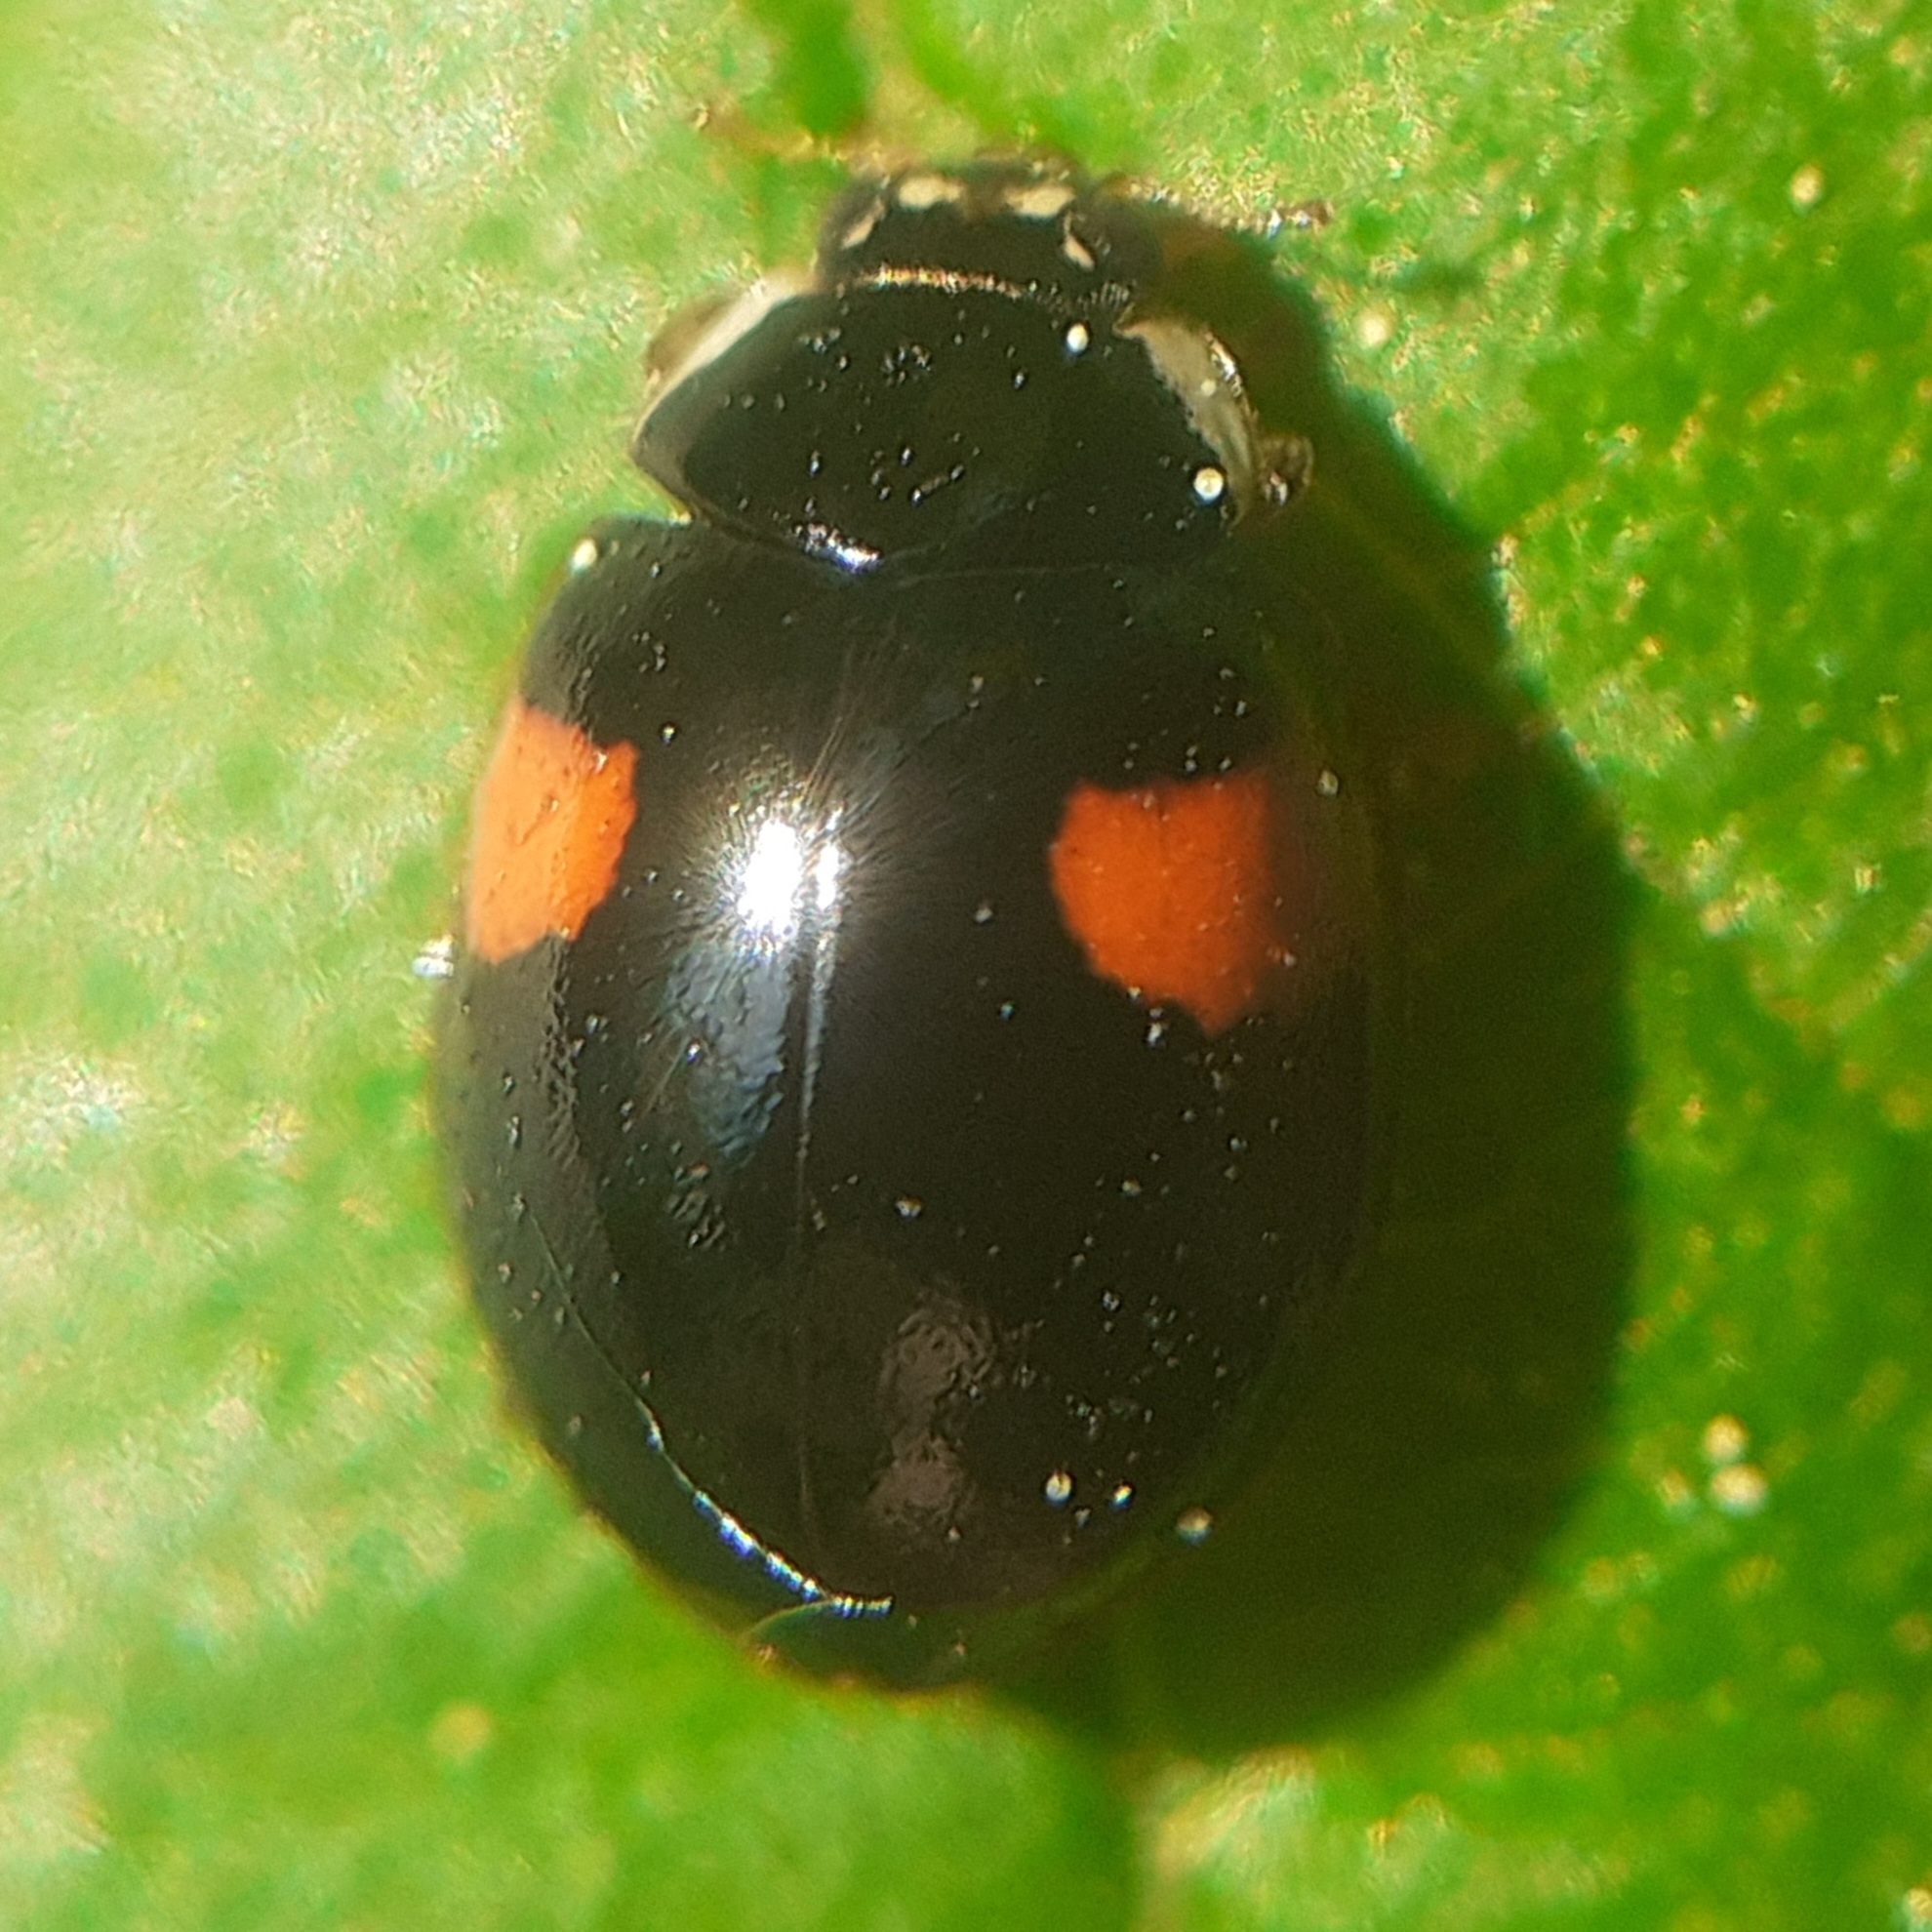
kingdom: Animalia
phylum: Arthropoda
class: Insecta
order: Coleoptera
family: Coccinellidae
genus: Adalia
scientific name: Adalia decempunctata
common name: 10-spot ladybird
